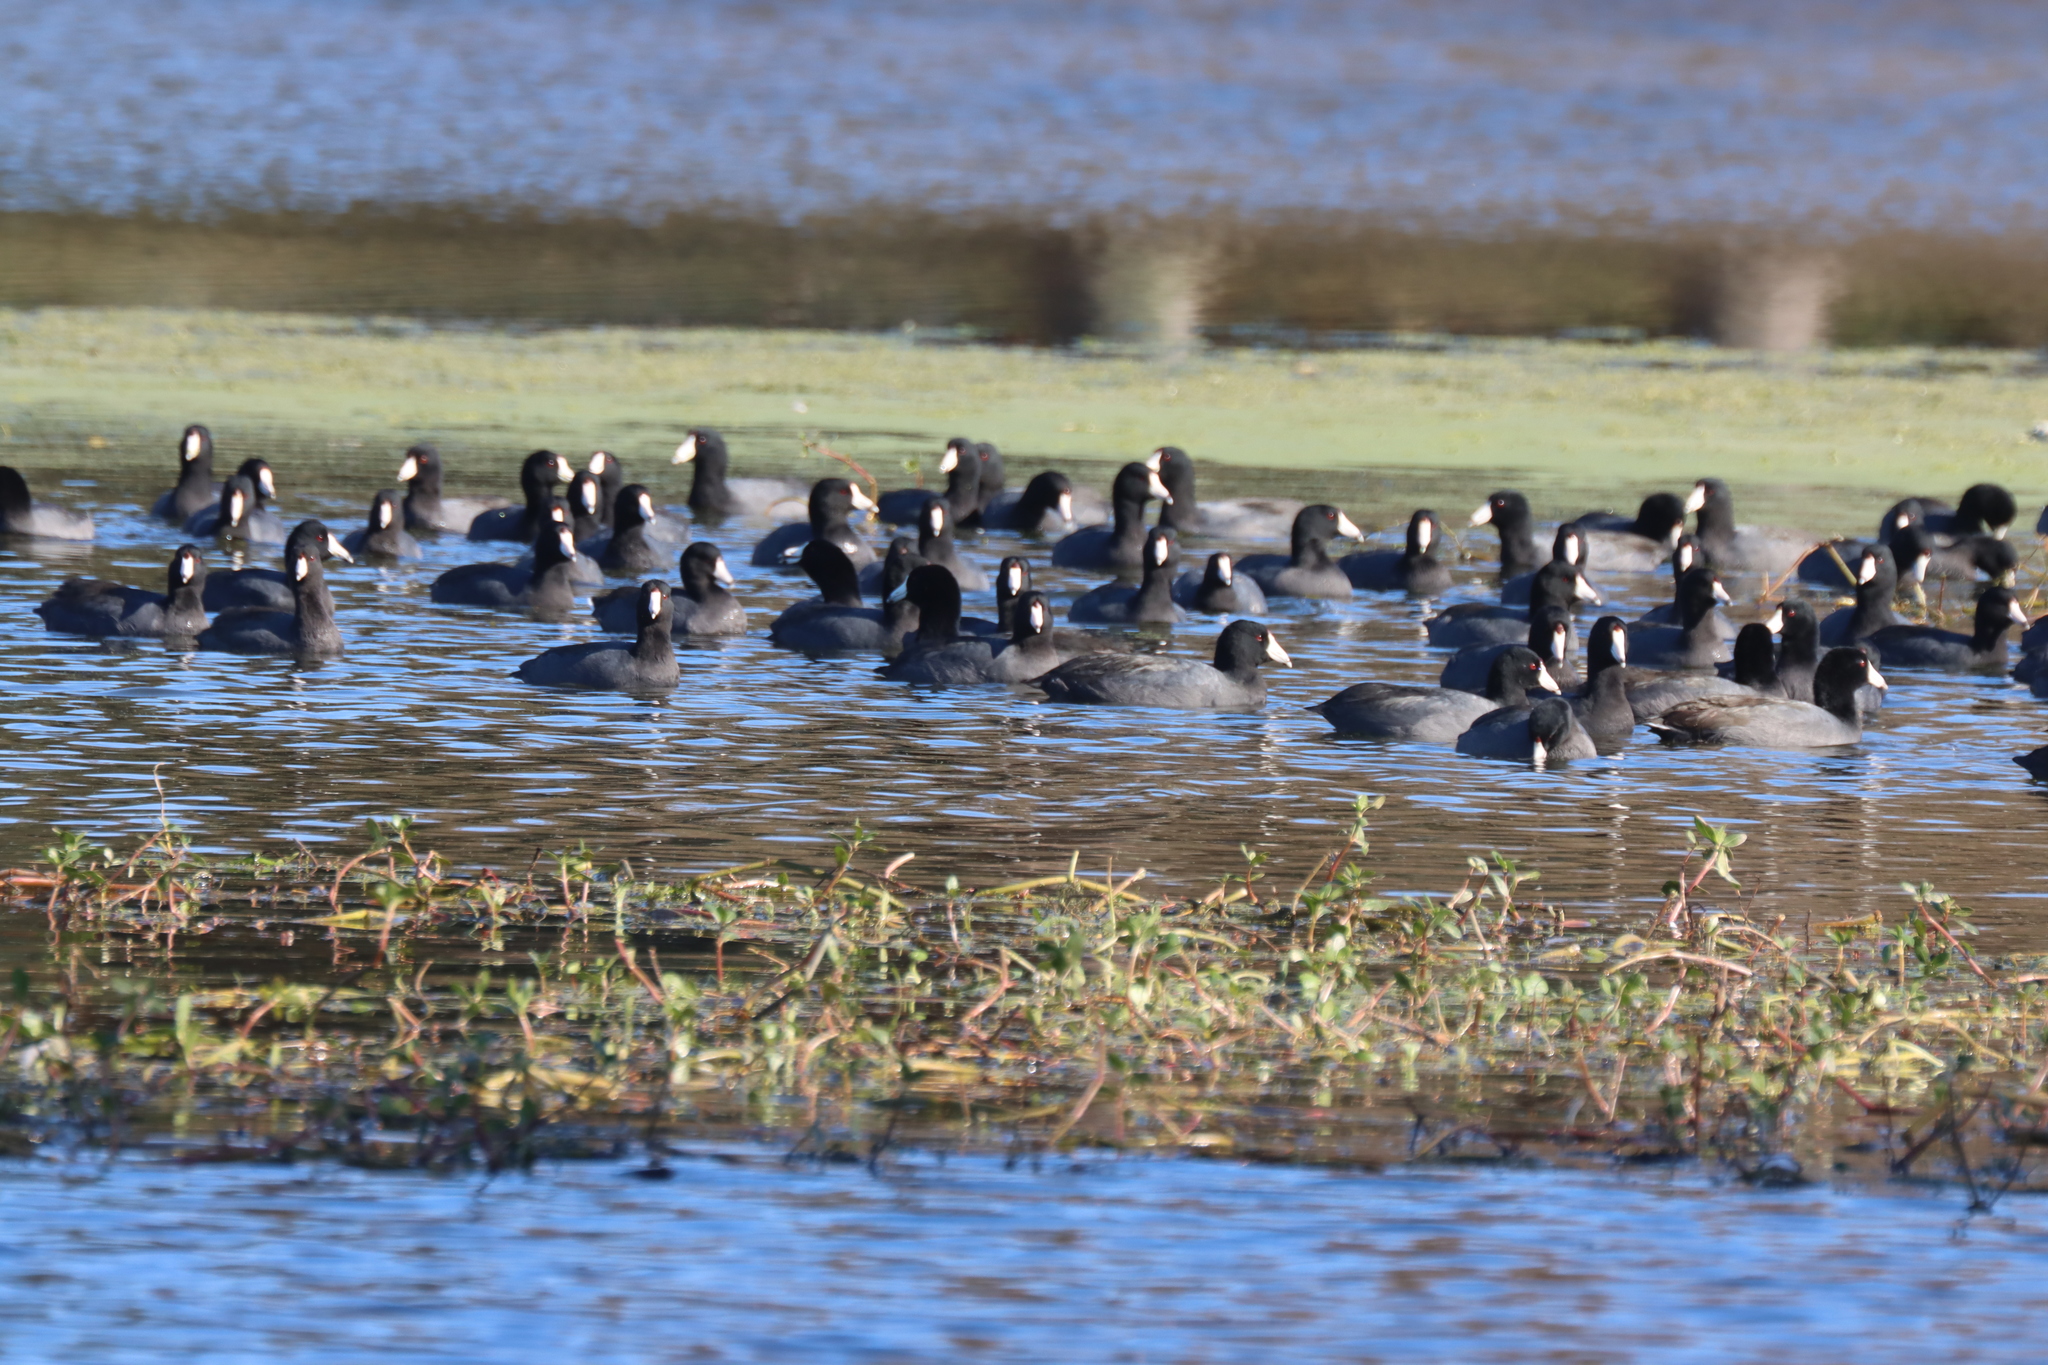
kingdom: Animalia
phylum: Chordata
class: Aves
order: Gruiformes
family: Rallidae
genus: Fulica
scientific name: Fulica americana
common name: American coot
